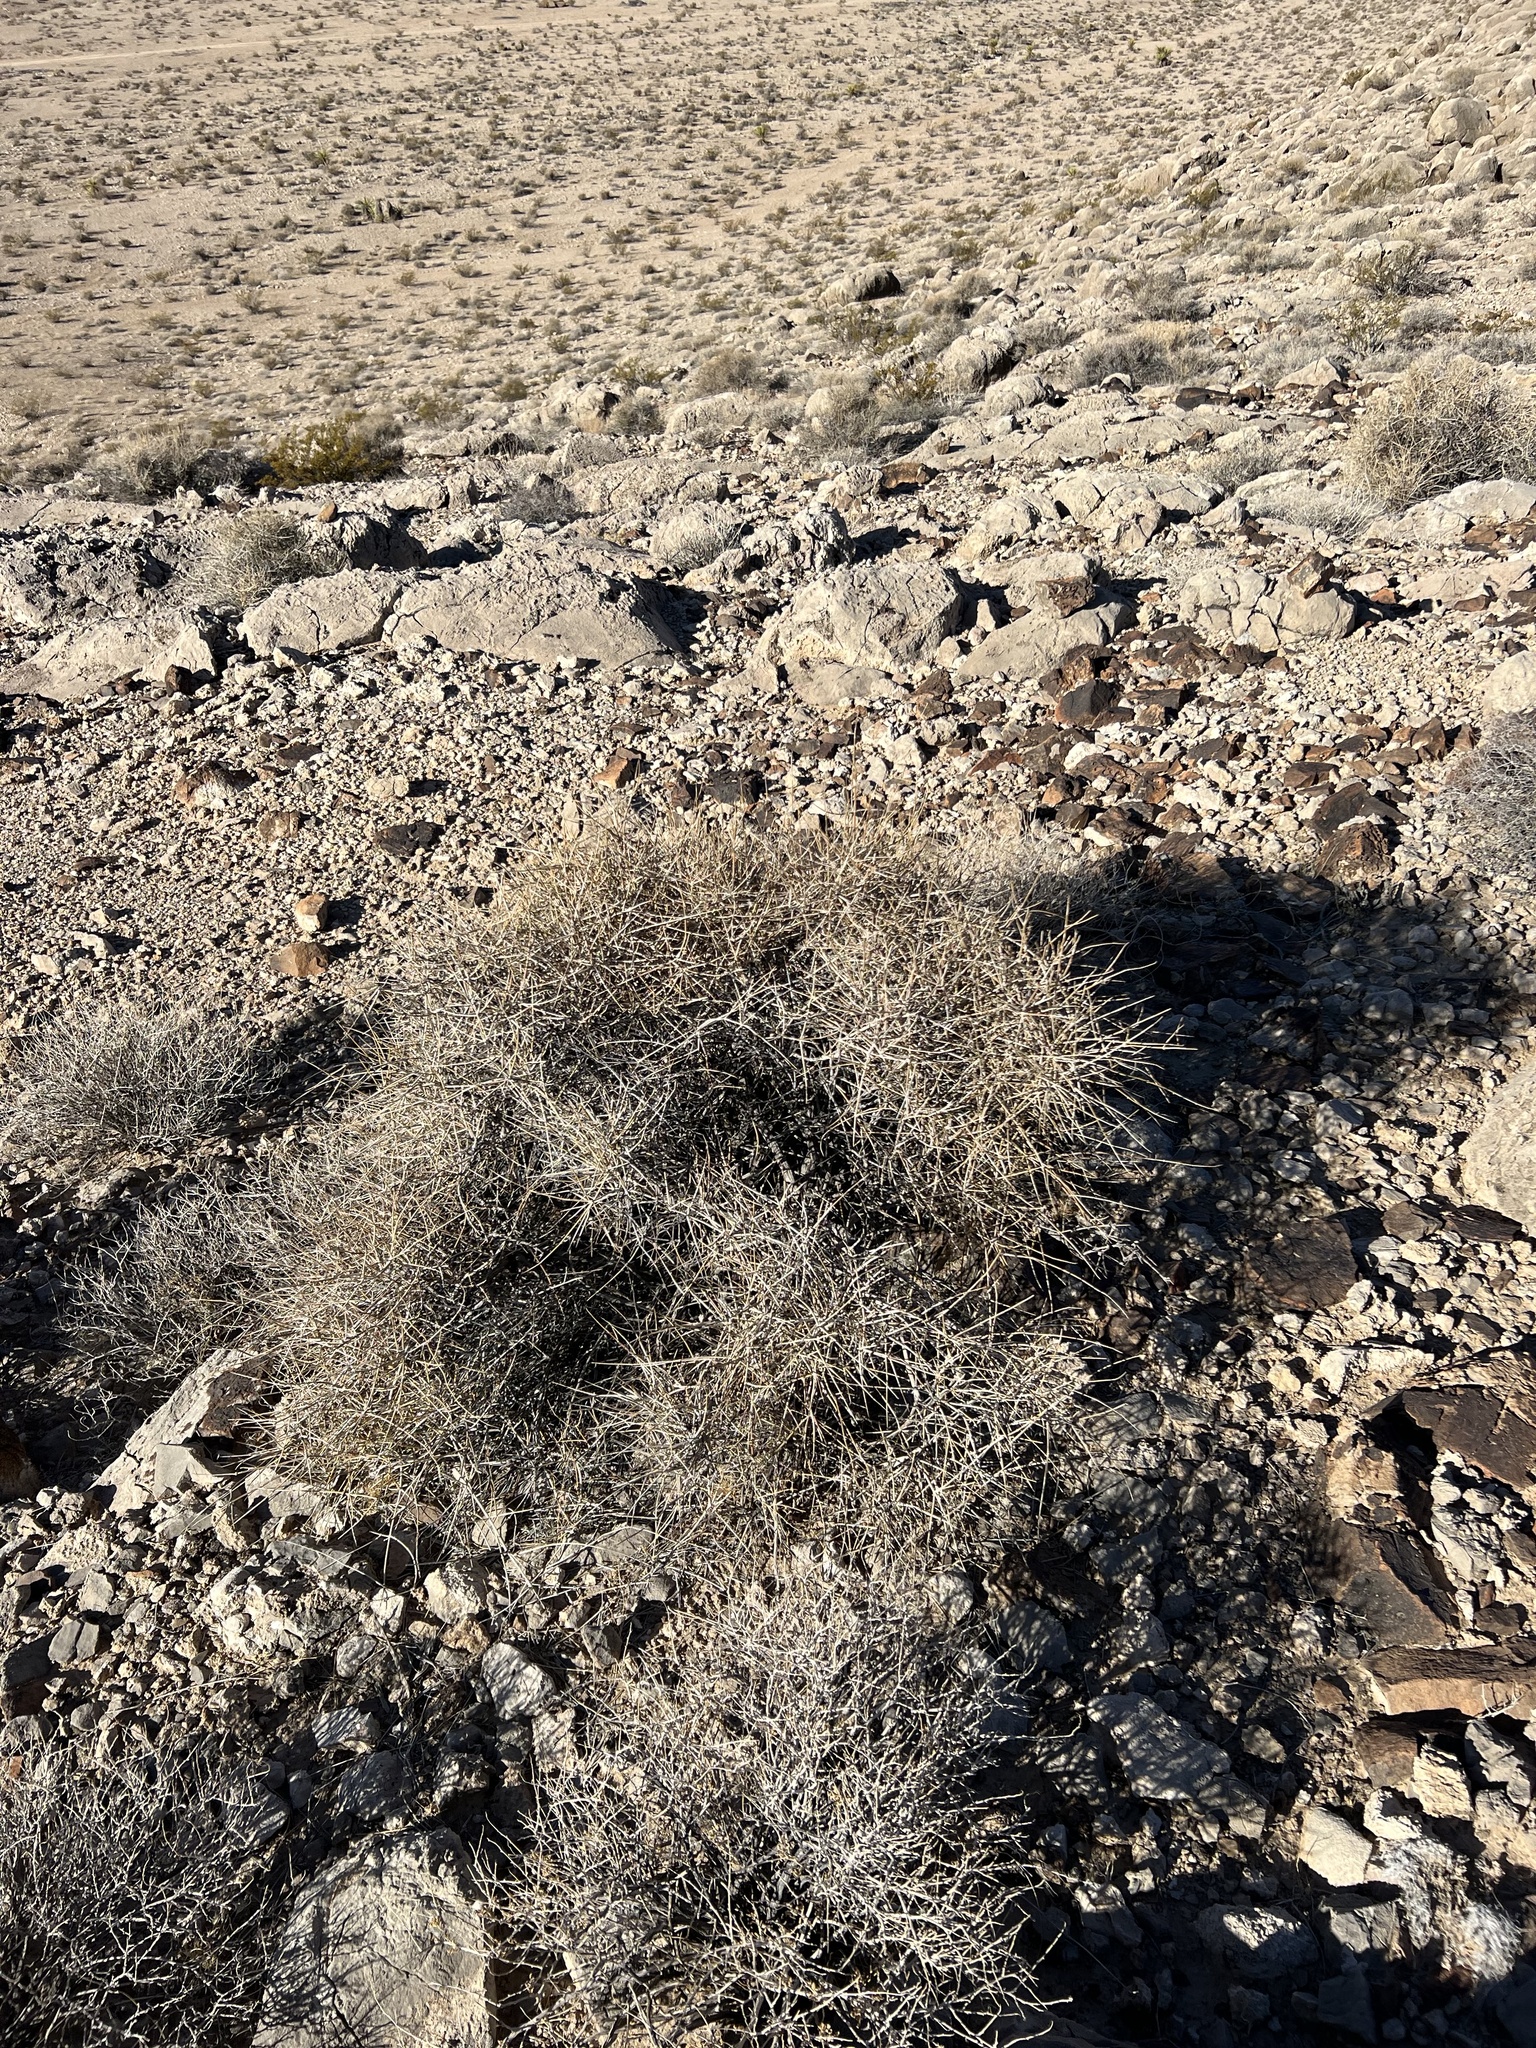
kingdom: Plantae
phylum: Tracheophyta
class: Gnetopsida
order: Ephedrales
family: Ephedraceae
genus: Ephedra
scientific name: Ephedra nevadensis
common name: Gray ephedra
